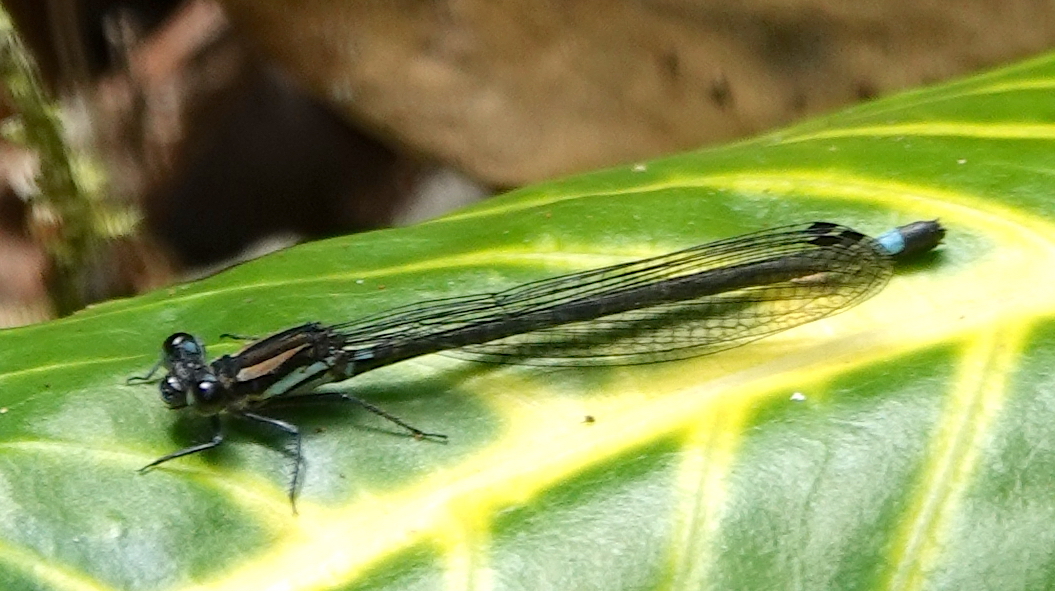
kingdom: Animalia
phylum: Arthropoda
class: Insecta
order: Odonata
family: Coenagrionidae
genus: Argia
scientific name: Argia underwoodi
